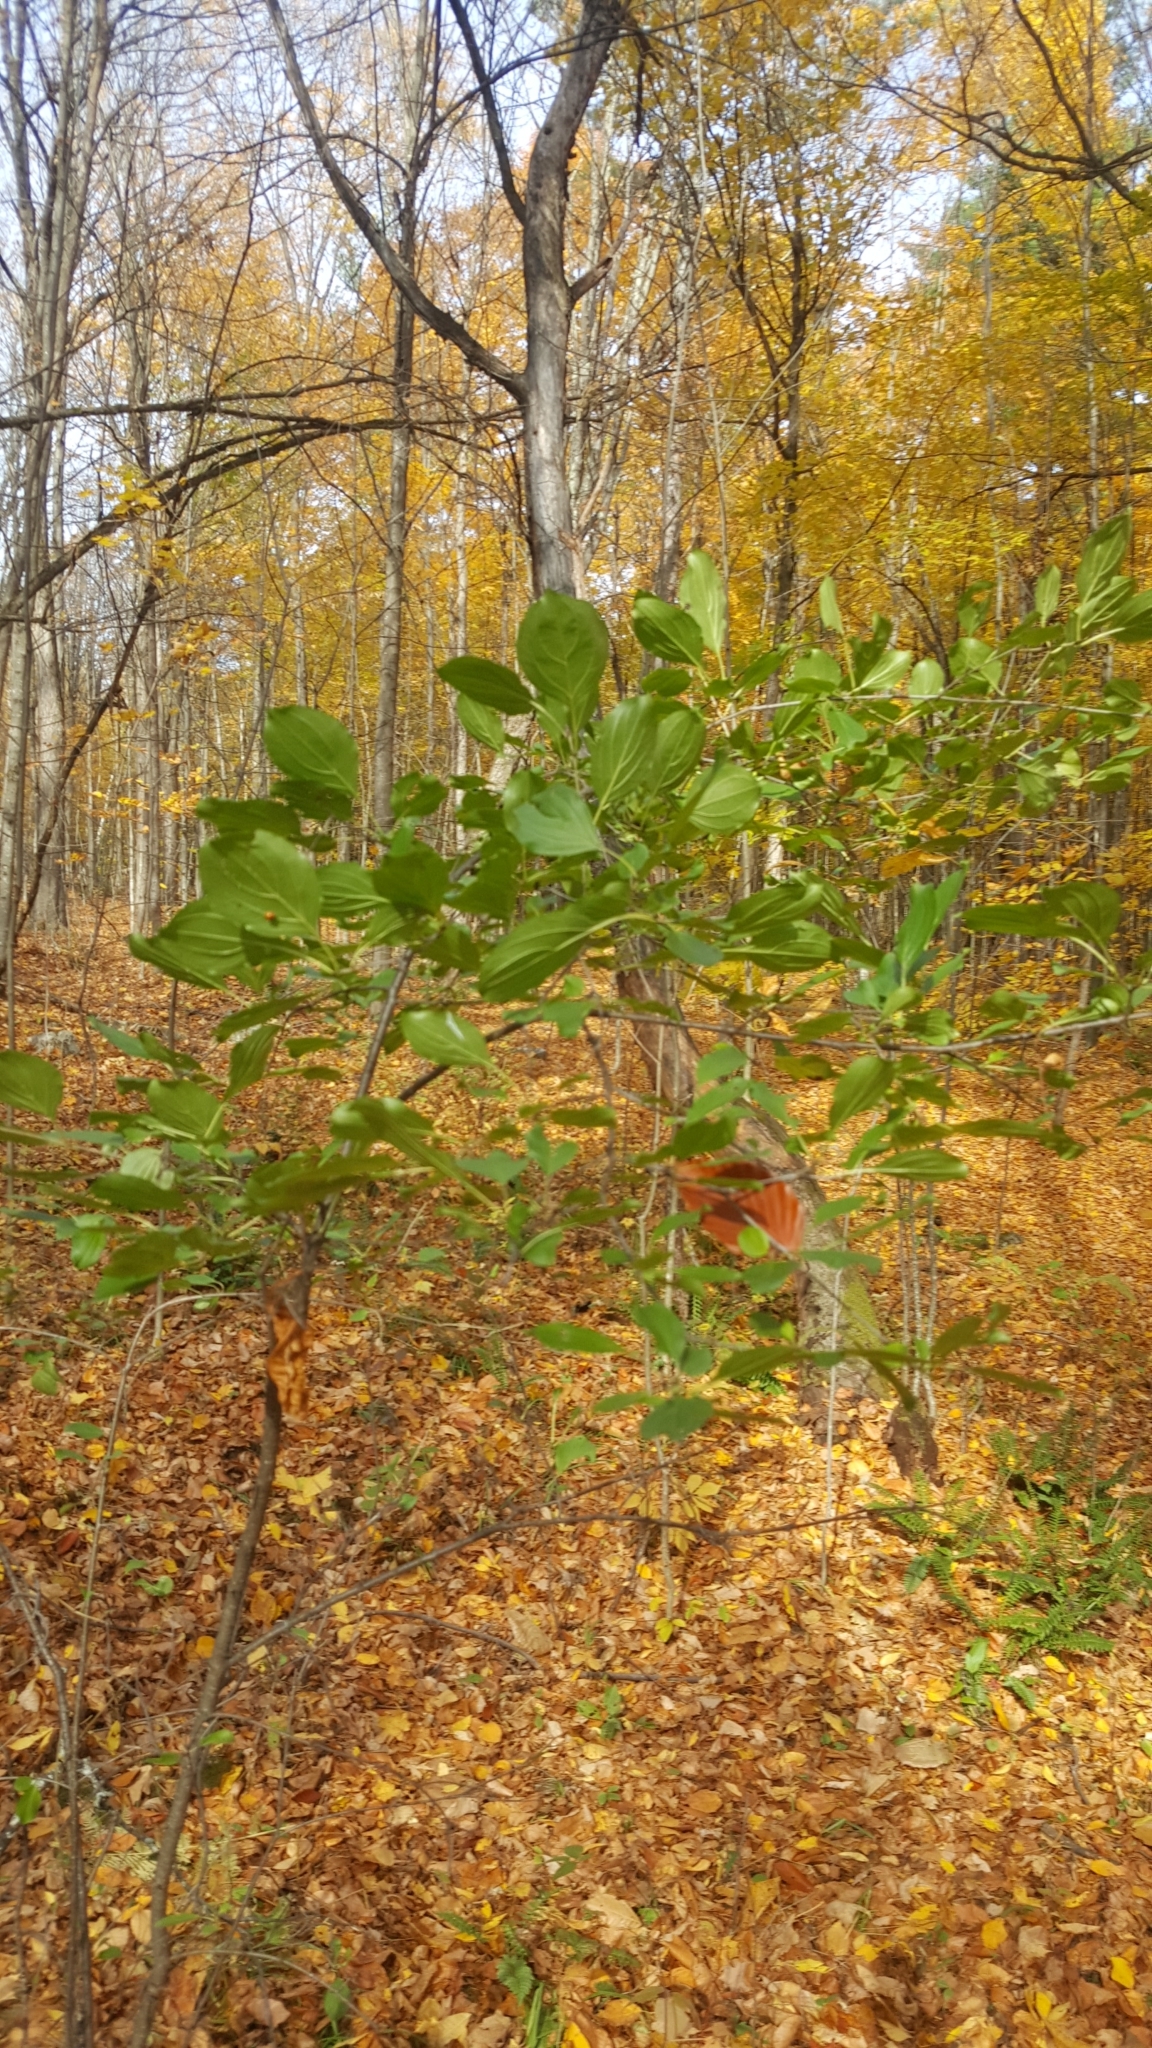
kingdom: Plantae
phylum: Tracheophyta
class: Magnoliopsida
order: Rosales
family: Rhamnaceae
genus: Rhamnus
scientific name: Rhamnus cathartica
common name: Common buckthorn
